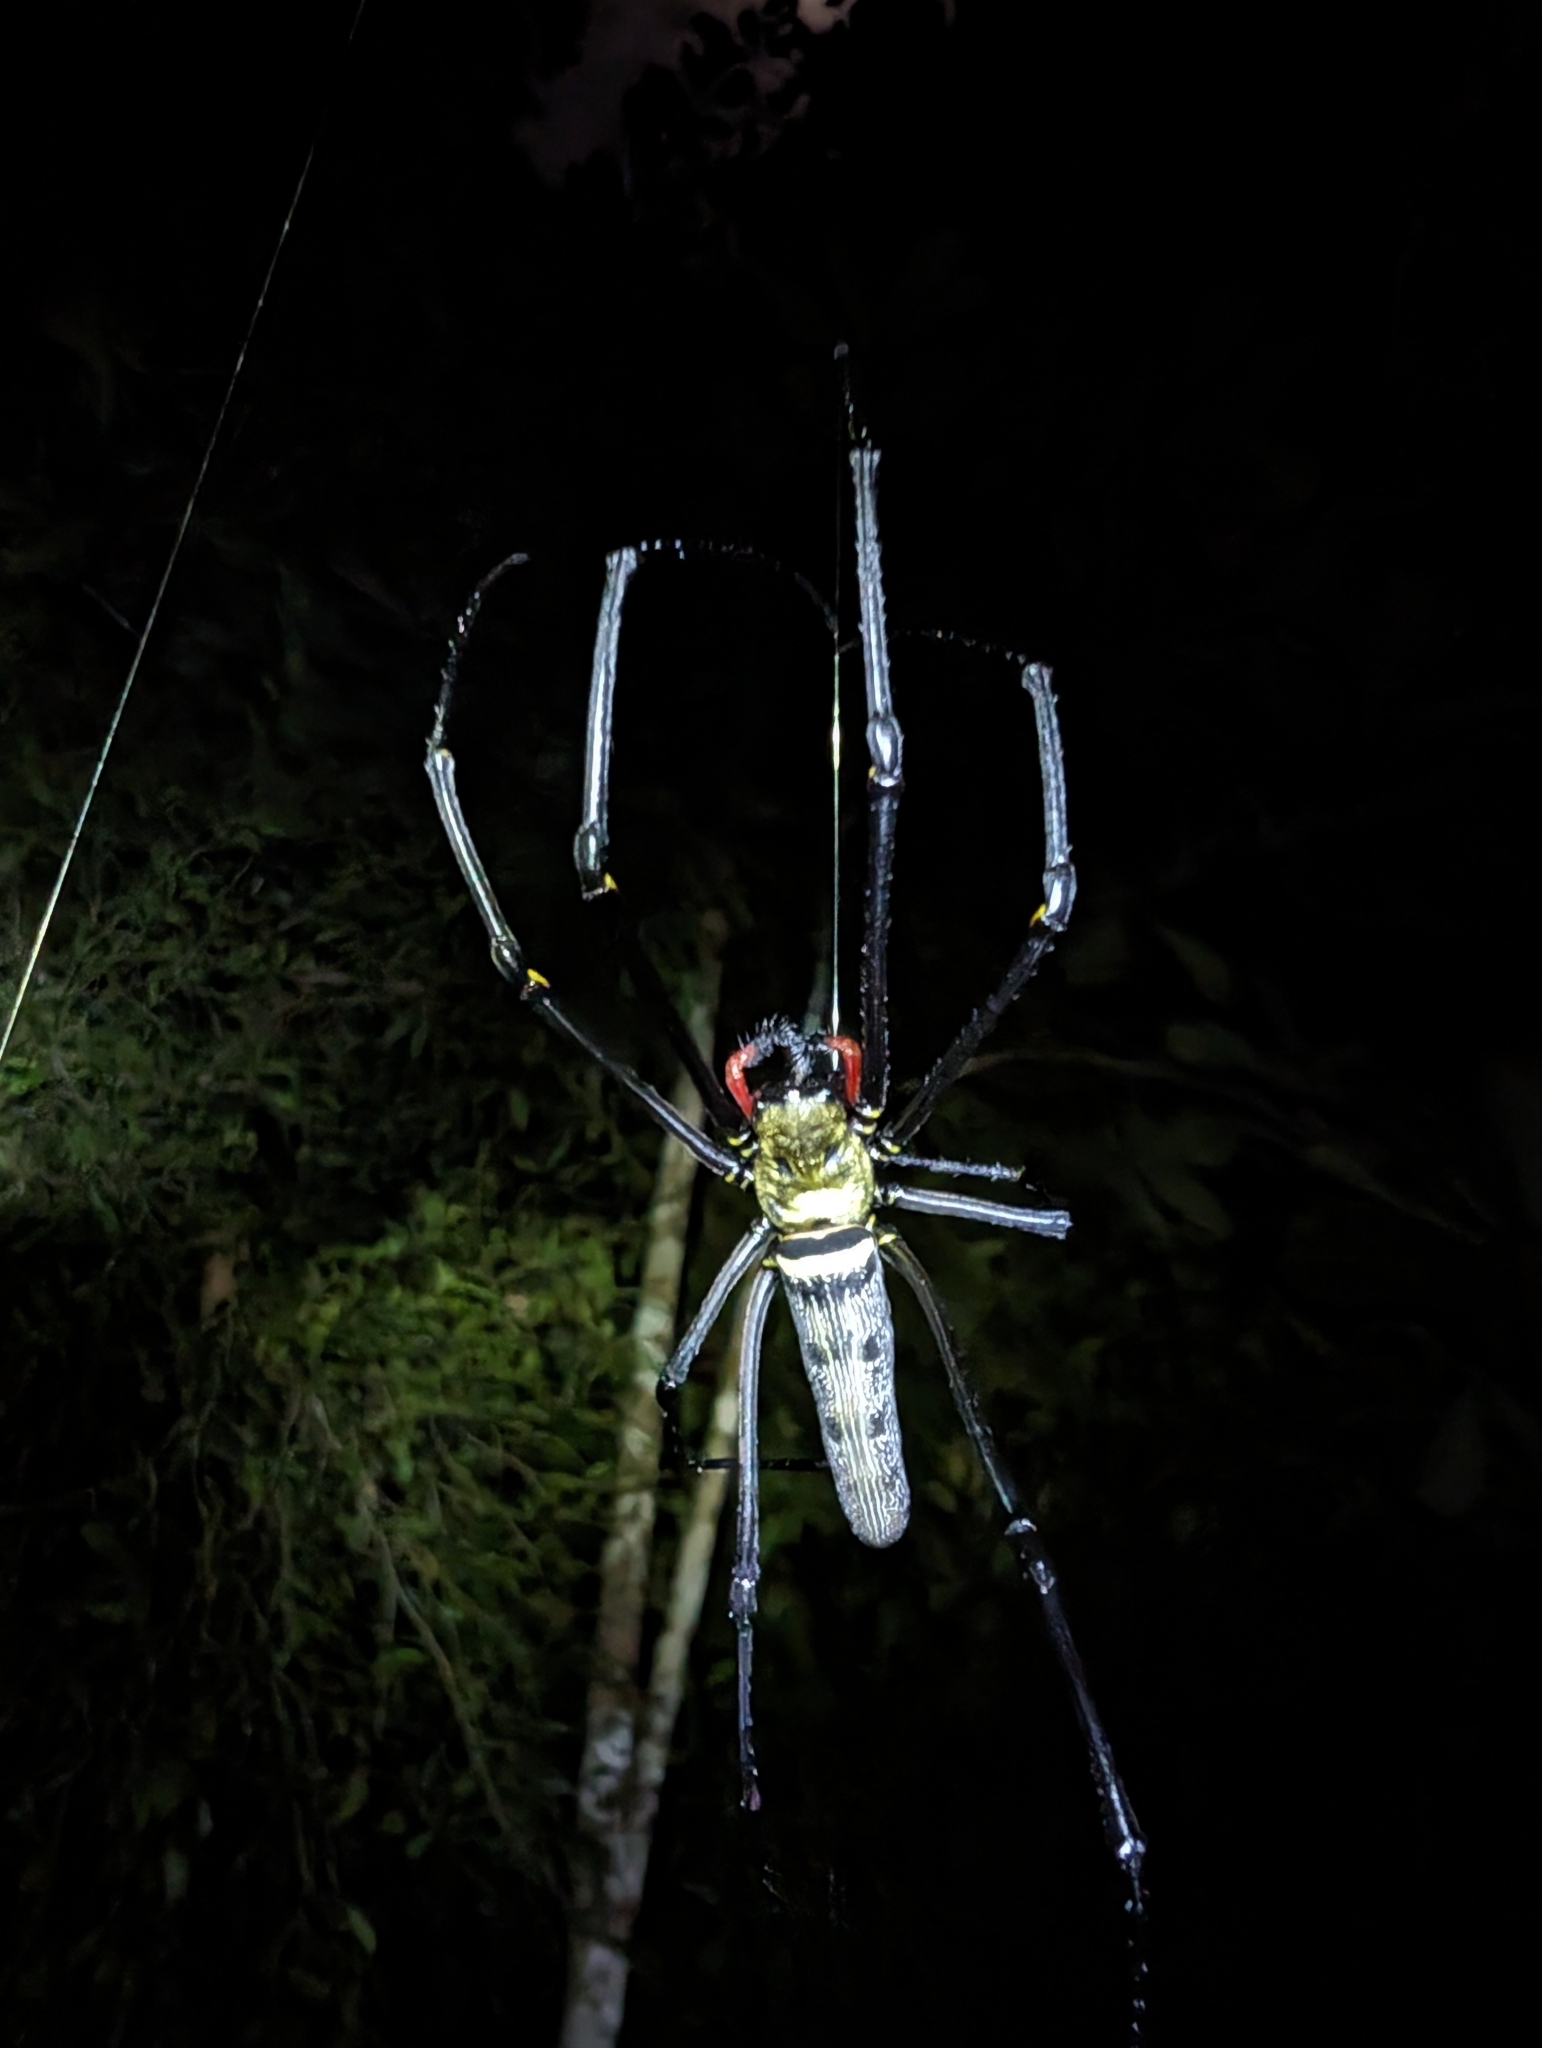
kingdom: Animalia
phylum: Arthropoda
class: Arachnida
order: Araneae
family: Araneidae
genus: Nephila
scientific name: Nephila pilipes
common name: Giant golden orb weaver
